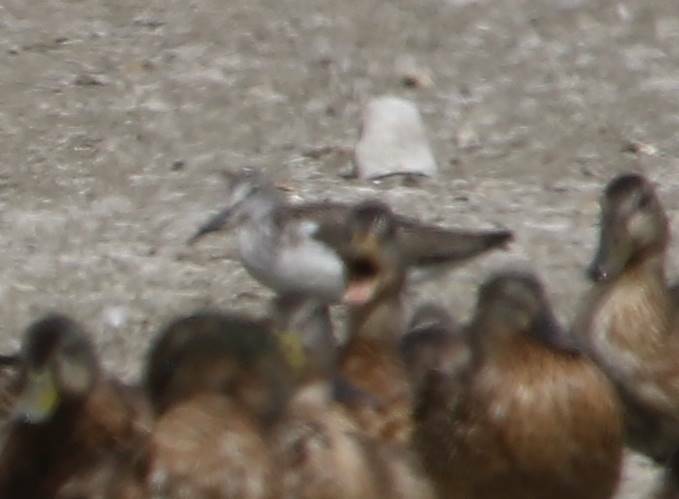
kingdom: Animalia
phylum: Chordata
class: Aves
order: Charadriiformes
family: Scolopacidae
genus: Tringa
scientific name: Tringa nebularia
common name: Common greenshank
